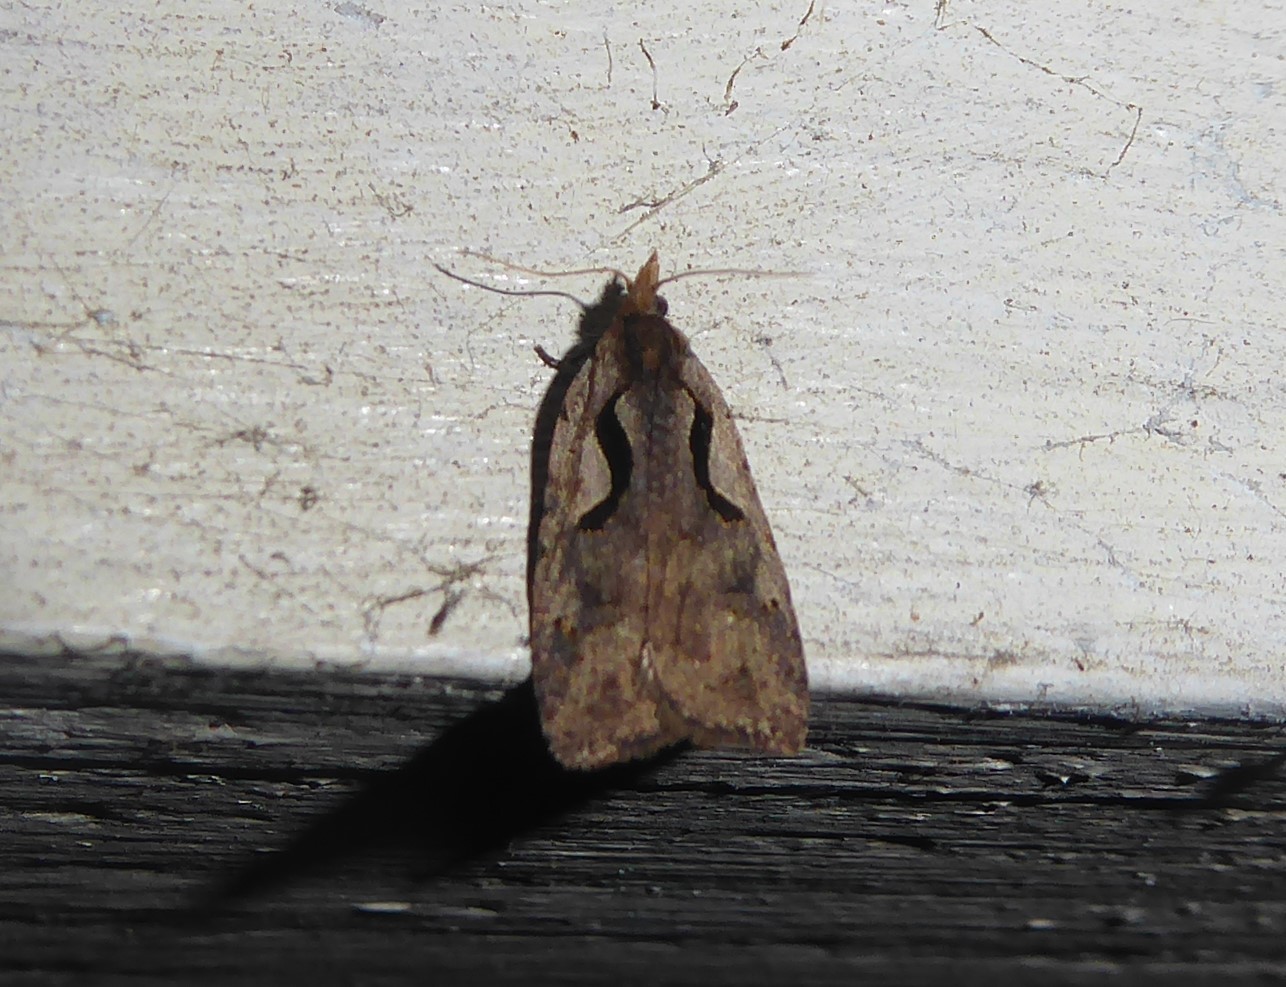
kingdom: Animalia
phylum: Arthropoda
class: Insecta
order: Lepidoptera
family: Tortricidae
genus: Cnephasia
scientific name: Cnephasia jactatana
